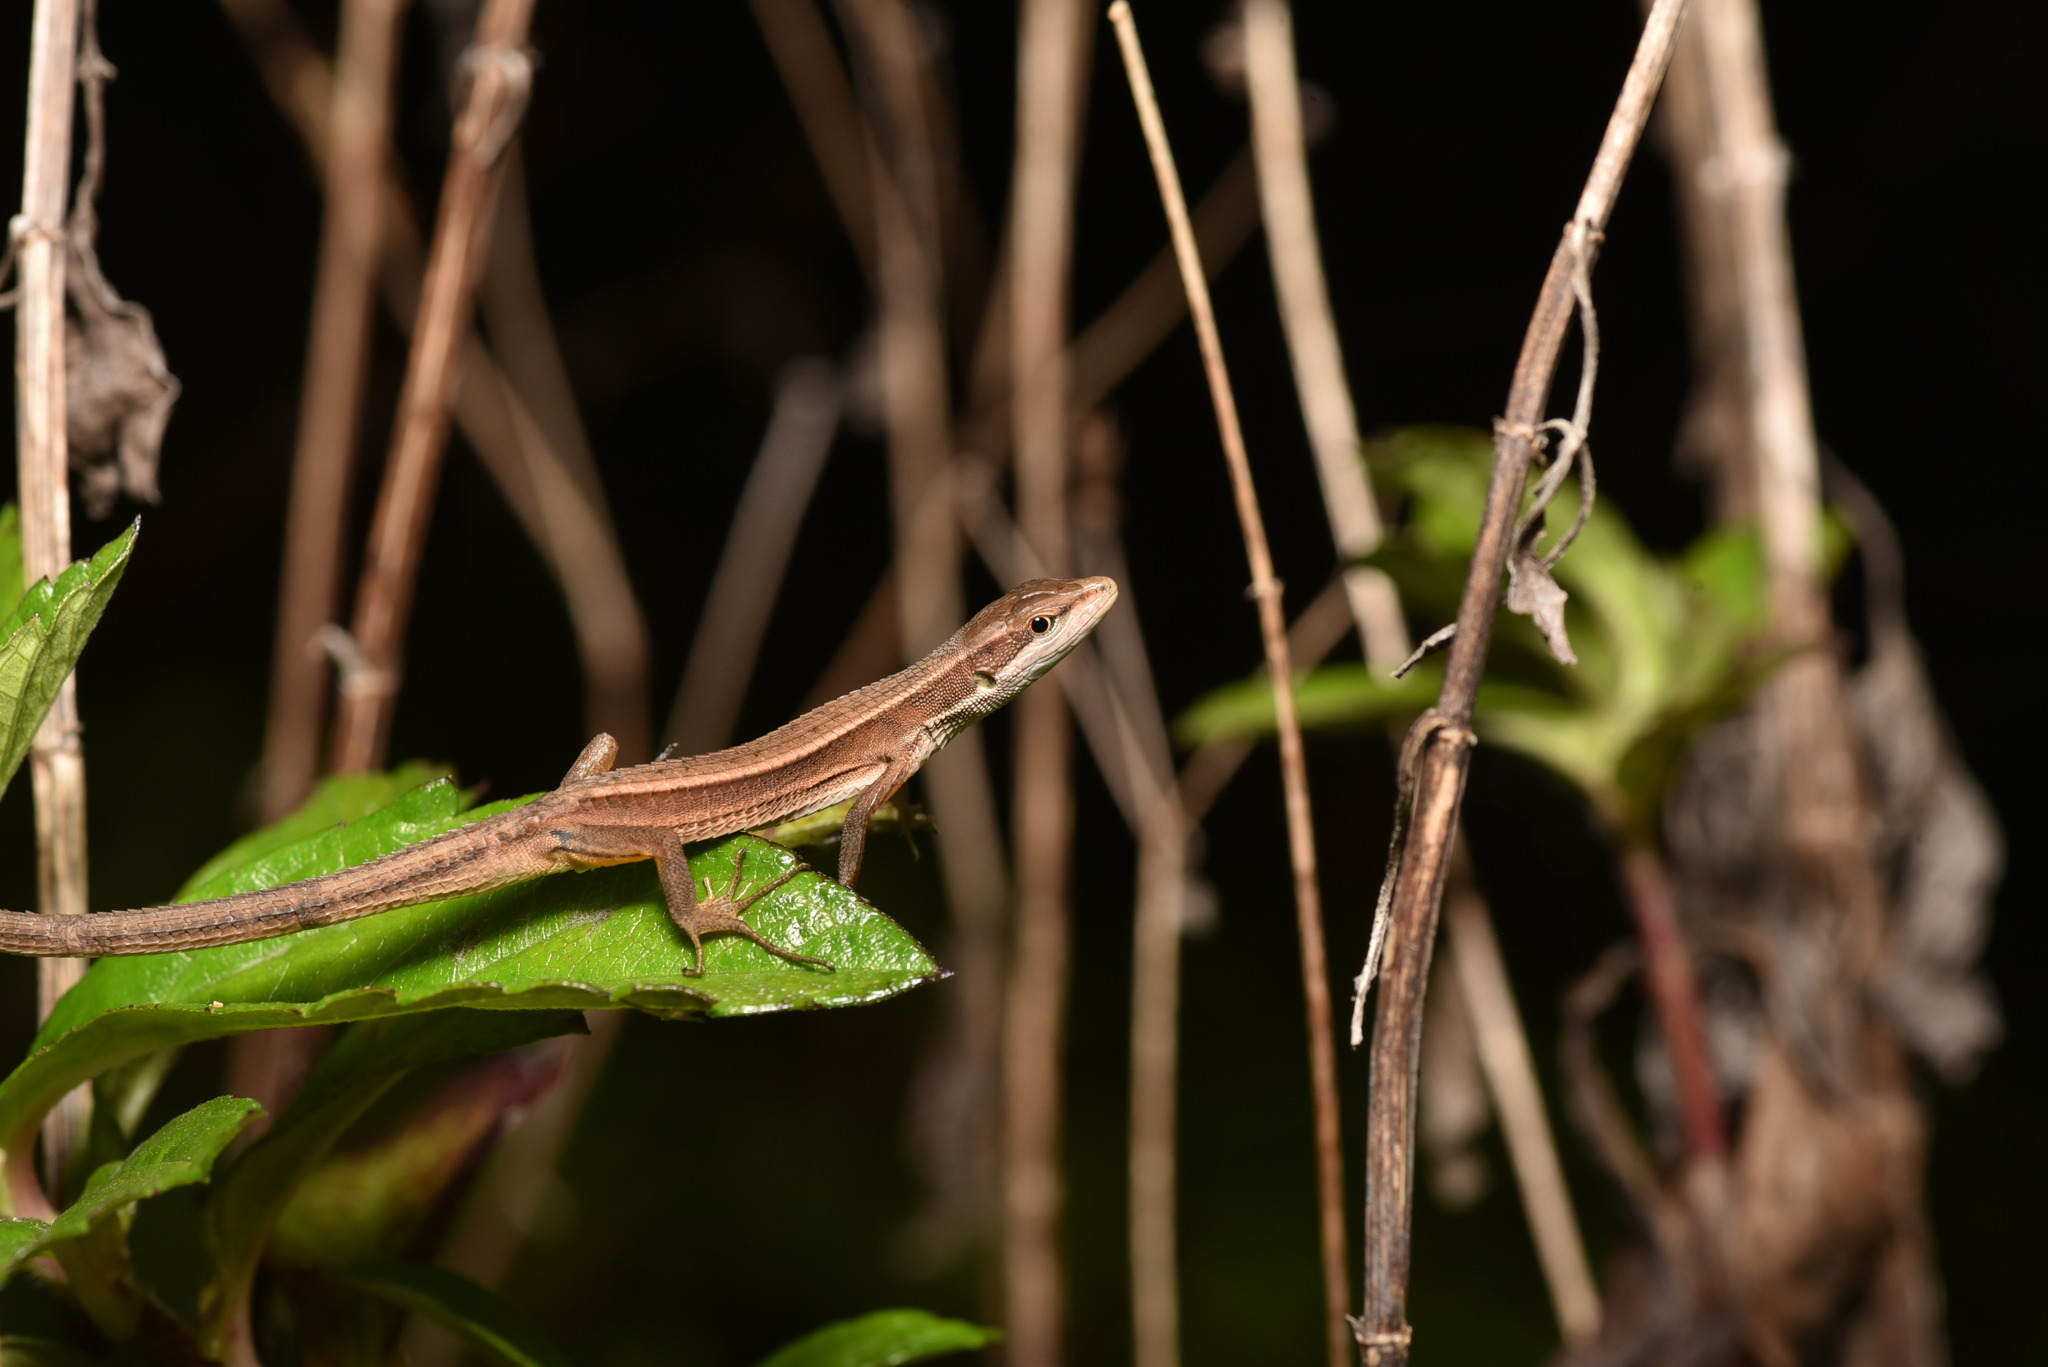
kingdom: Animalia
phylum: Chordata
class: Squamata
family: Lacertidae
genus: Takydromus
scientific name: Takydromus stejnegeri
